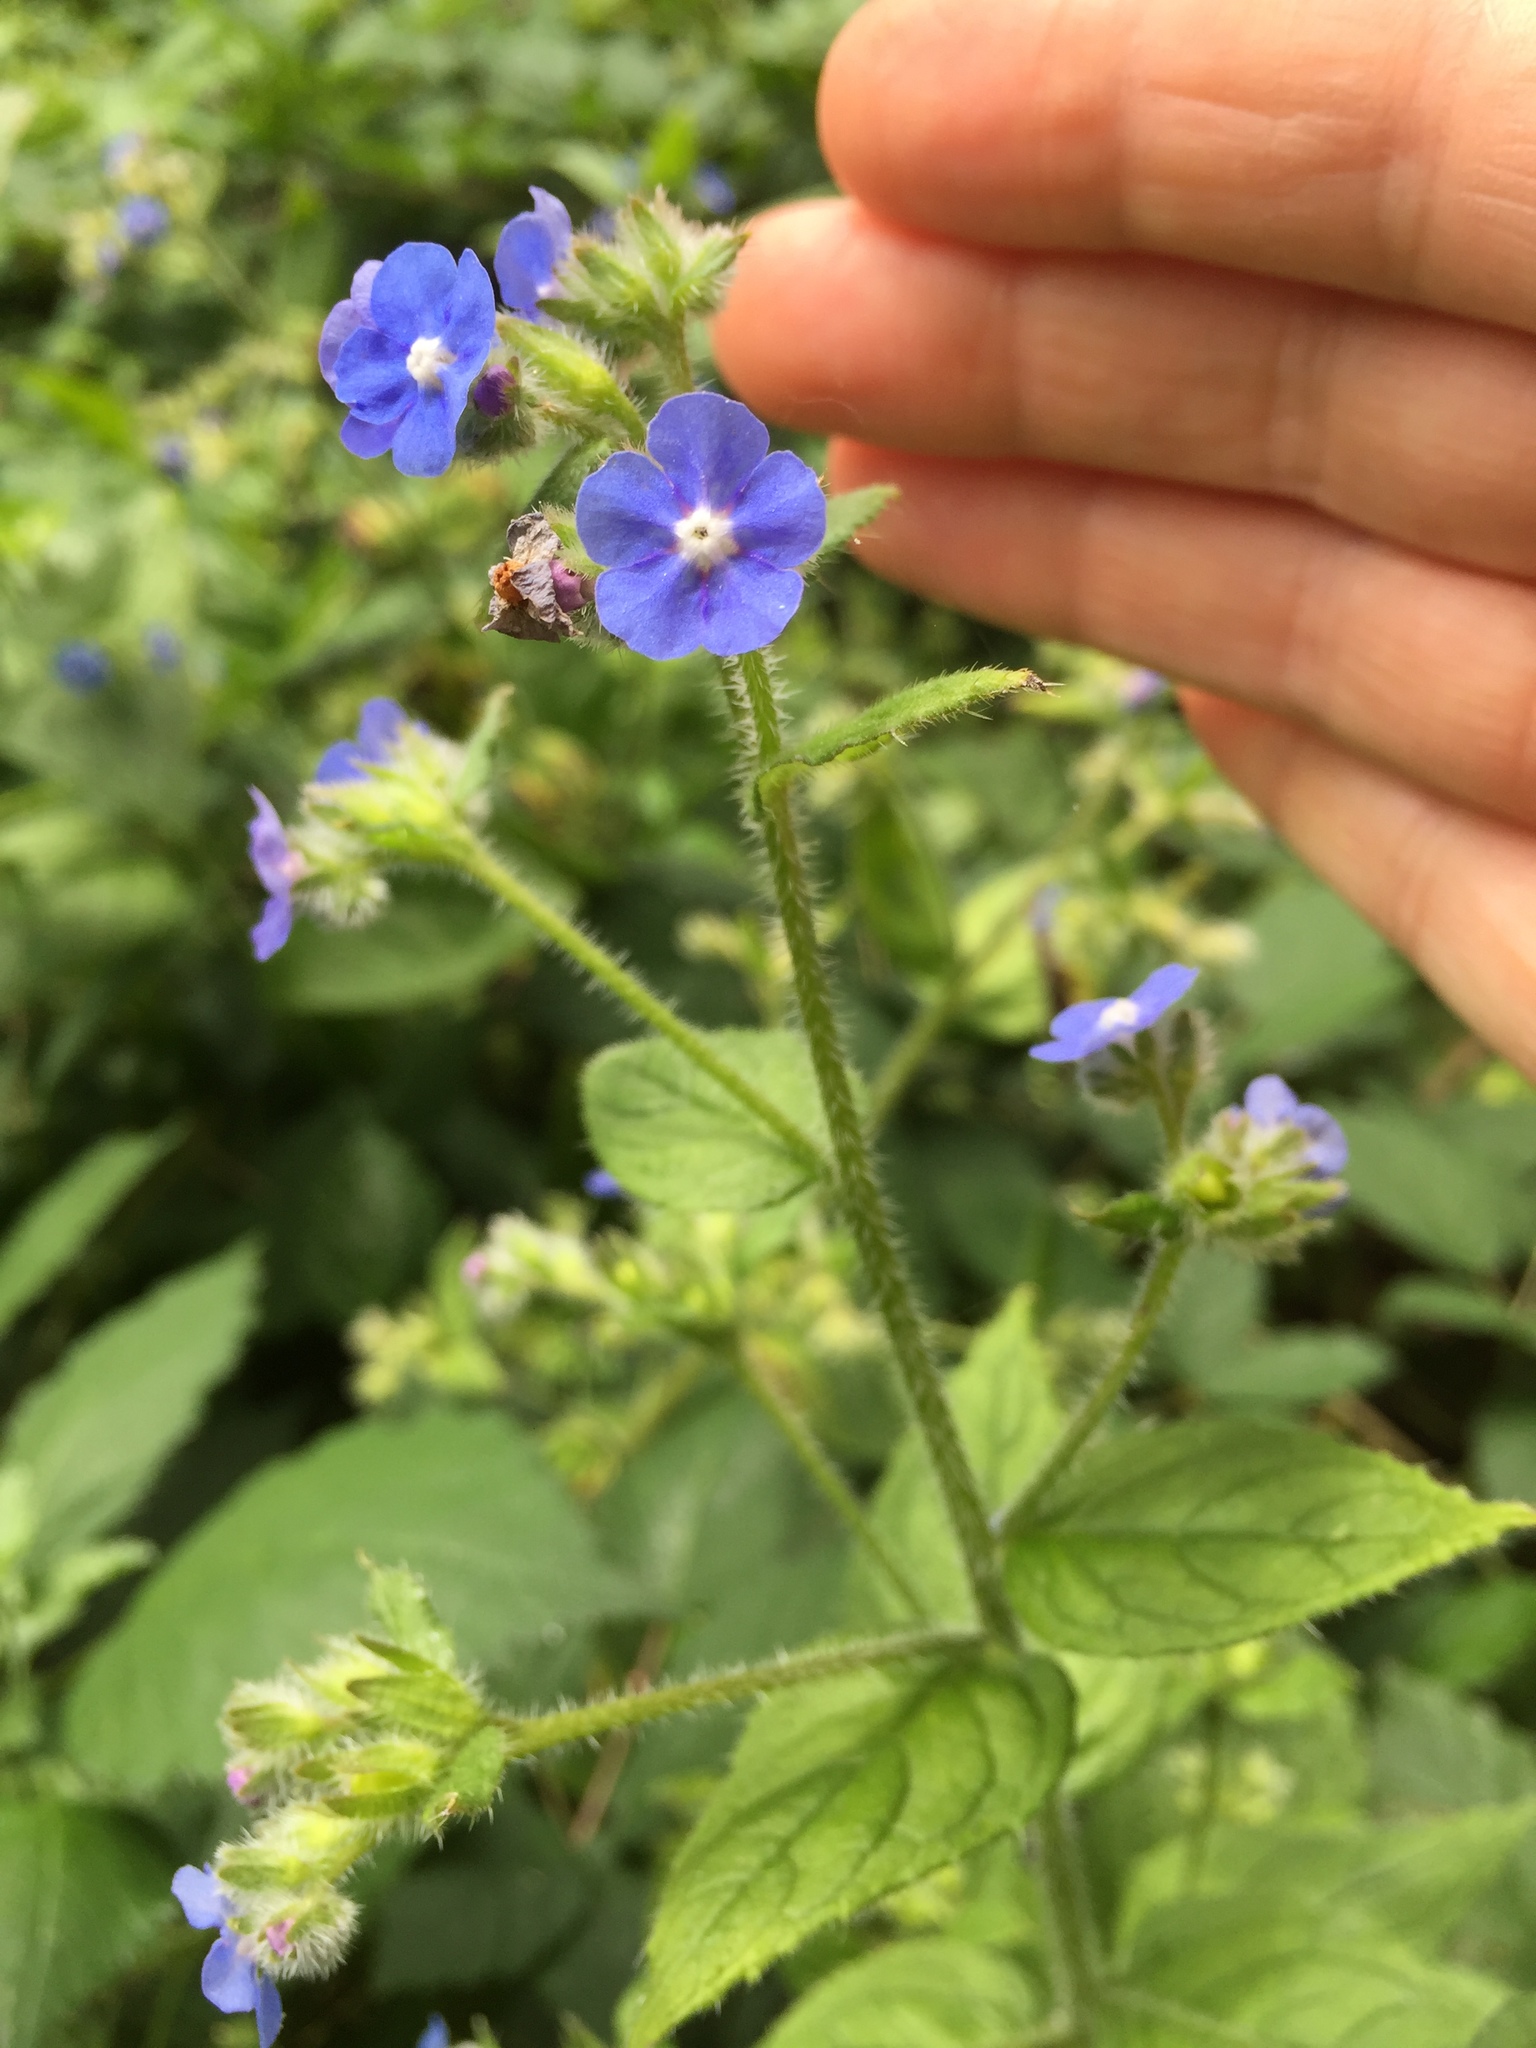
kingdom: Plantae
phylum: Tracheophyta
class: Magnoliopsida
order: Boraginales
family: Boraginaceae
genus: Pentaglottis
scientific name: Pentaglottis sempervirens
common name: Green alkanet
